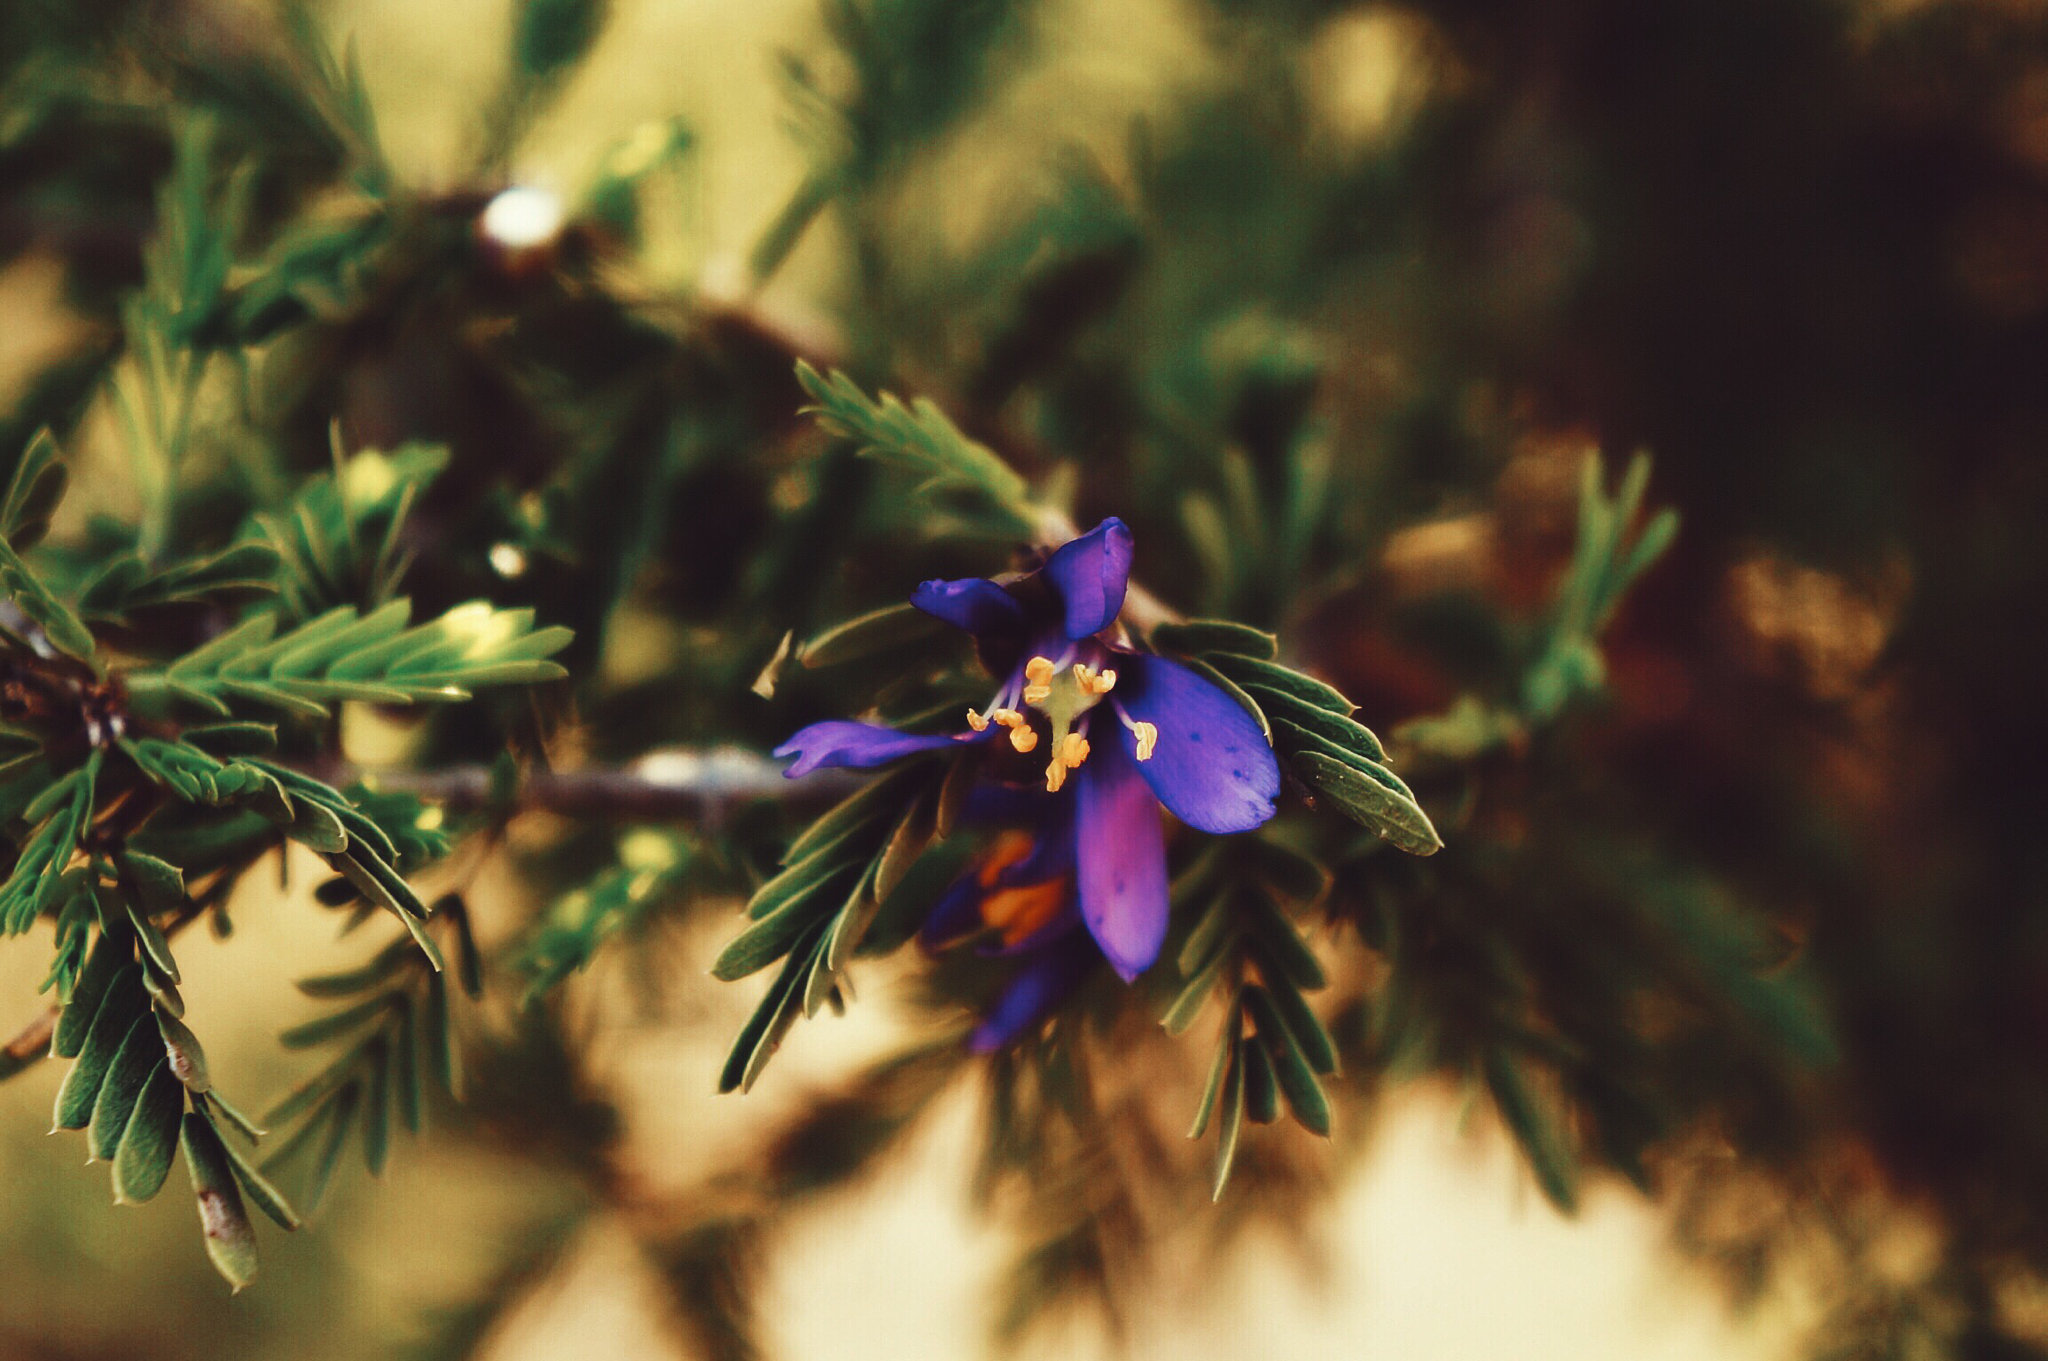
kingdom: Plantae
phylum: Tracheophyta
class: Magnoliopsida
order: Zygophyllales
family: Zygophyllaceae
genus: Porlieria
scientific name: Porlieria angustifolia
